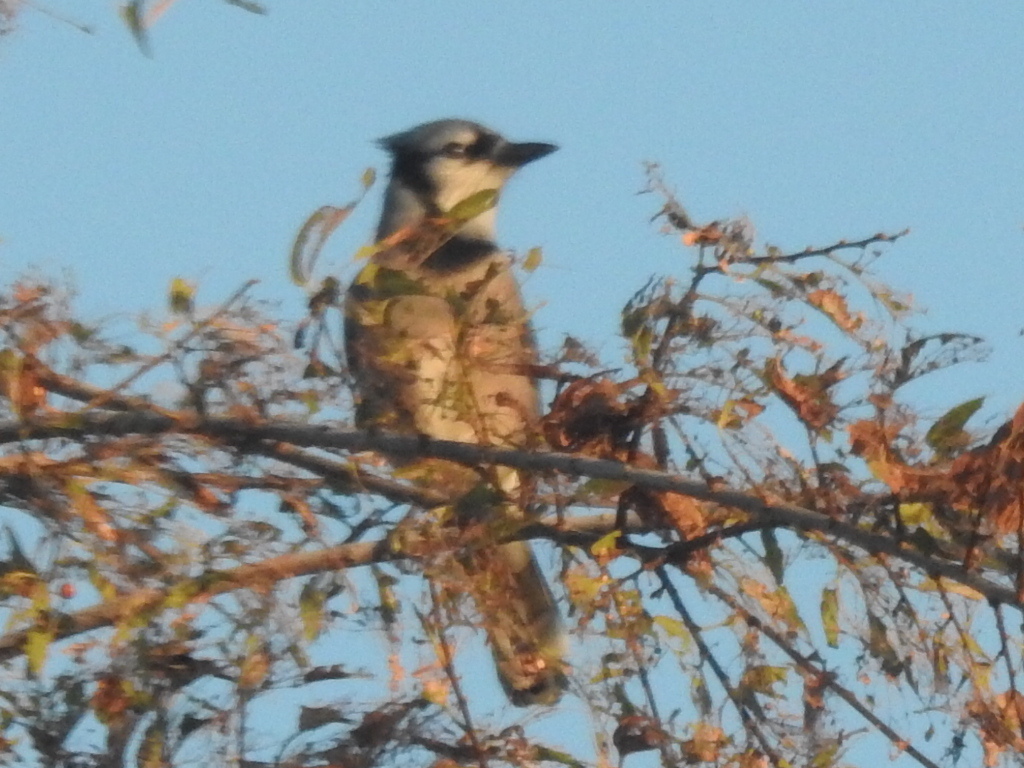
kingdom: Animalia
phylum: Chordata
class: Aves
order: Passeriformes
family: Corvidae
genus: Cyanocitta
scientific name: Cyanocitta cristata
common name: Blue jay
